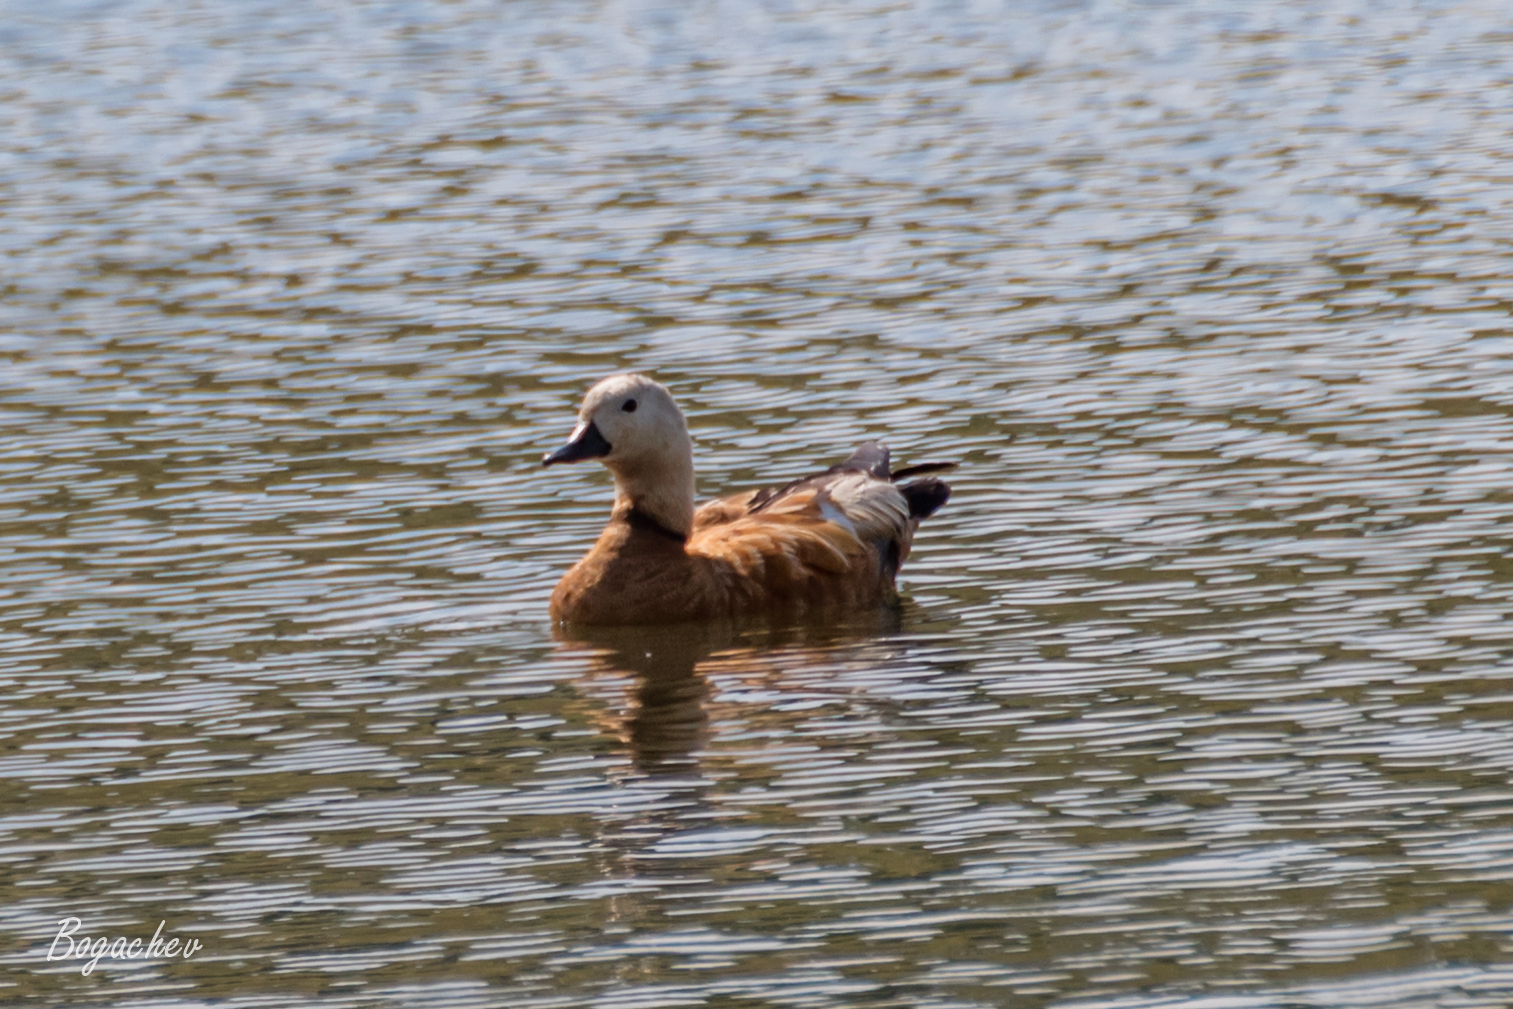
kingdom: Animalia
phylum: Chordata
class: Aves
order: Anseriformes
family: Anatidae
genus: Tadorna
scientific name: Tadorna ferruginea
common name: Ruddy shelduck
